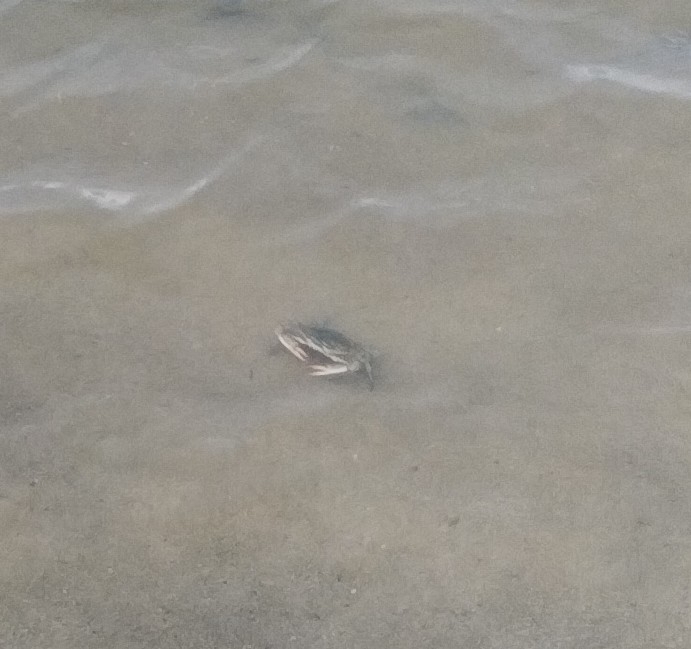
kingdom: Animalia
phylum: Arthropoda
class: Malacostraca
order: Decapoda
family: Portunidae
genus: Callinectes
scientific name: Callinectes sapidus
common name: Blue crab
